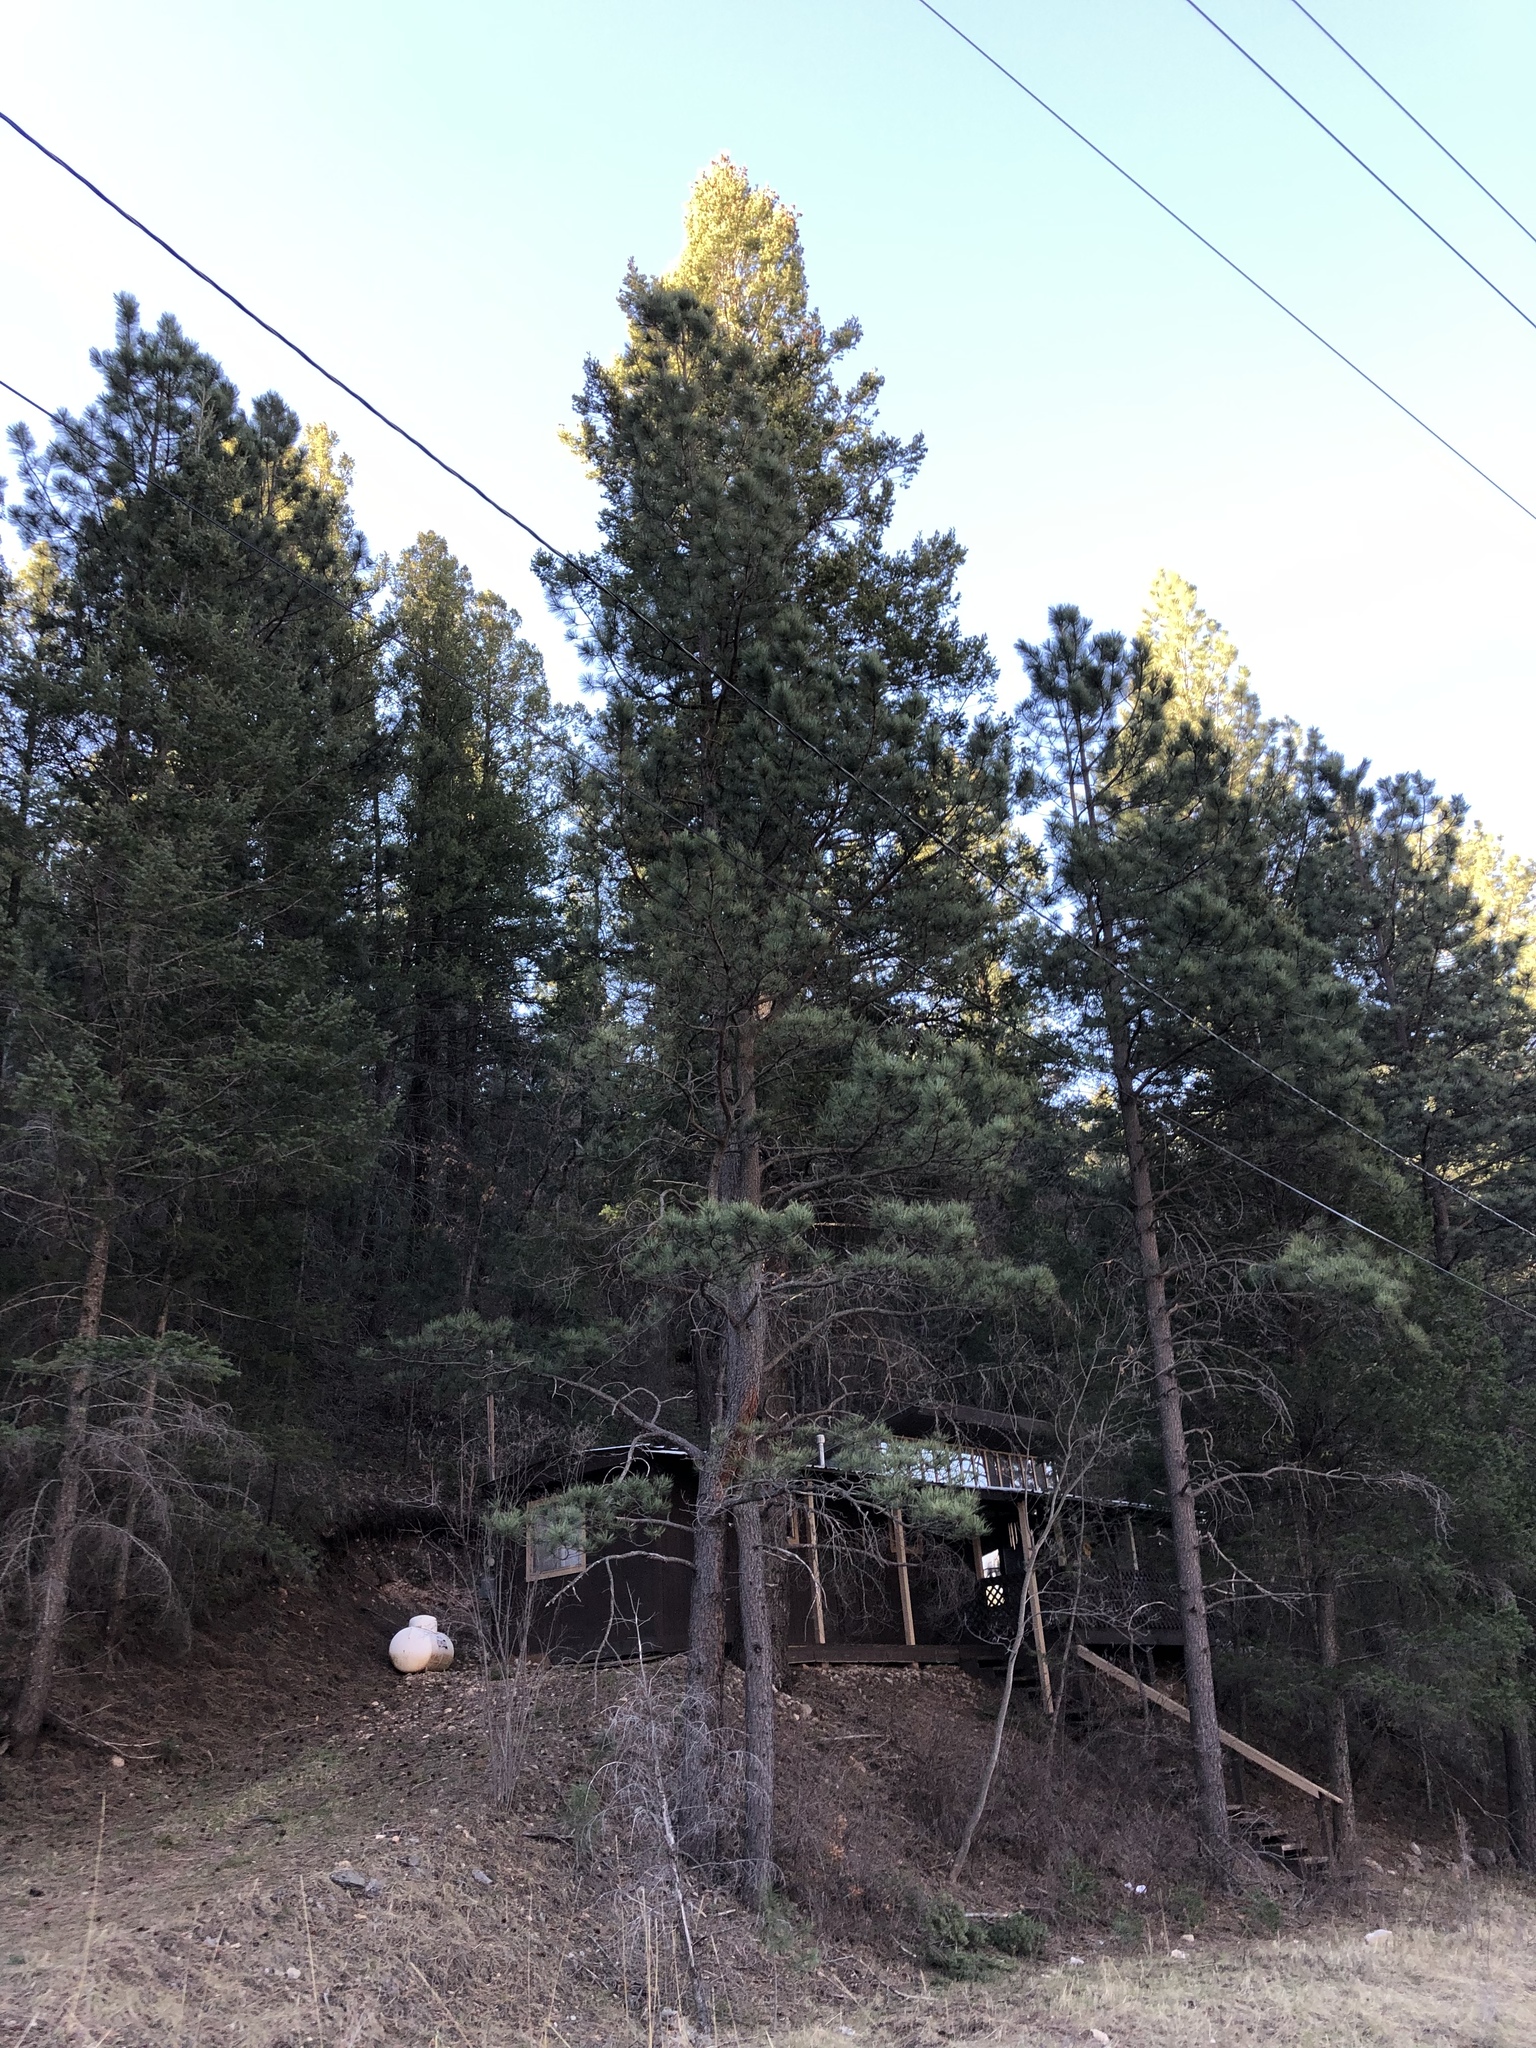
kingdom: Plantae
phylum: Tracheophyta
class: Pinopsida
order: Pinales
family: Pinaceae
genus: Pinus
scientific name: Pinus ponderosa
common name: Western yellow-pine
